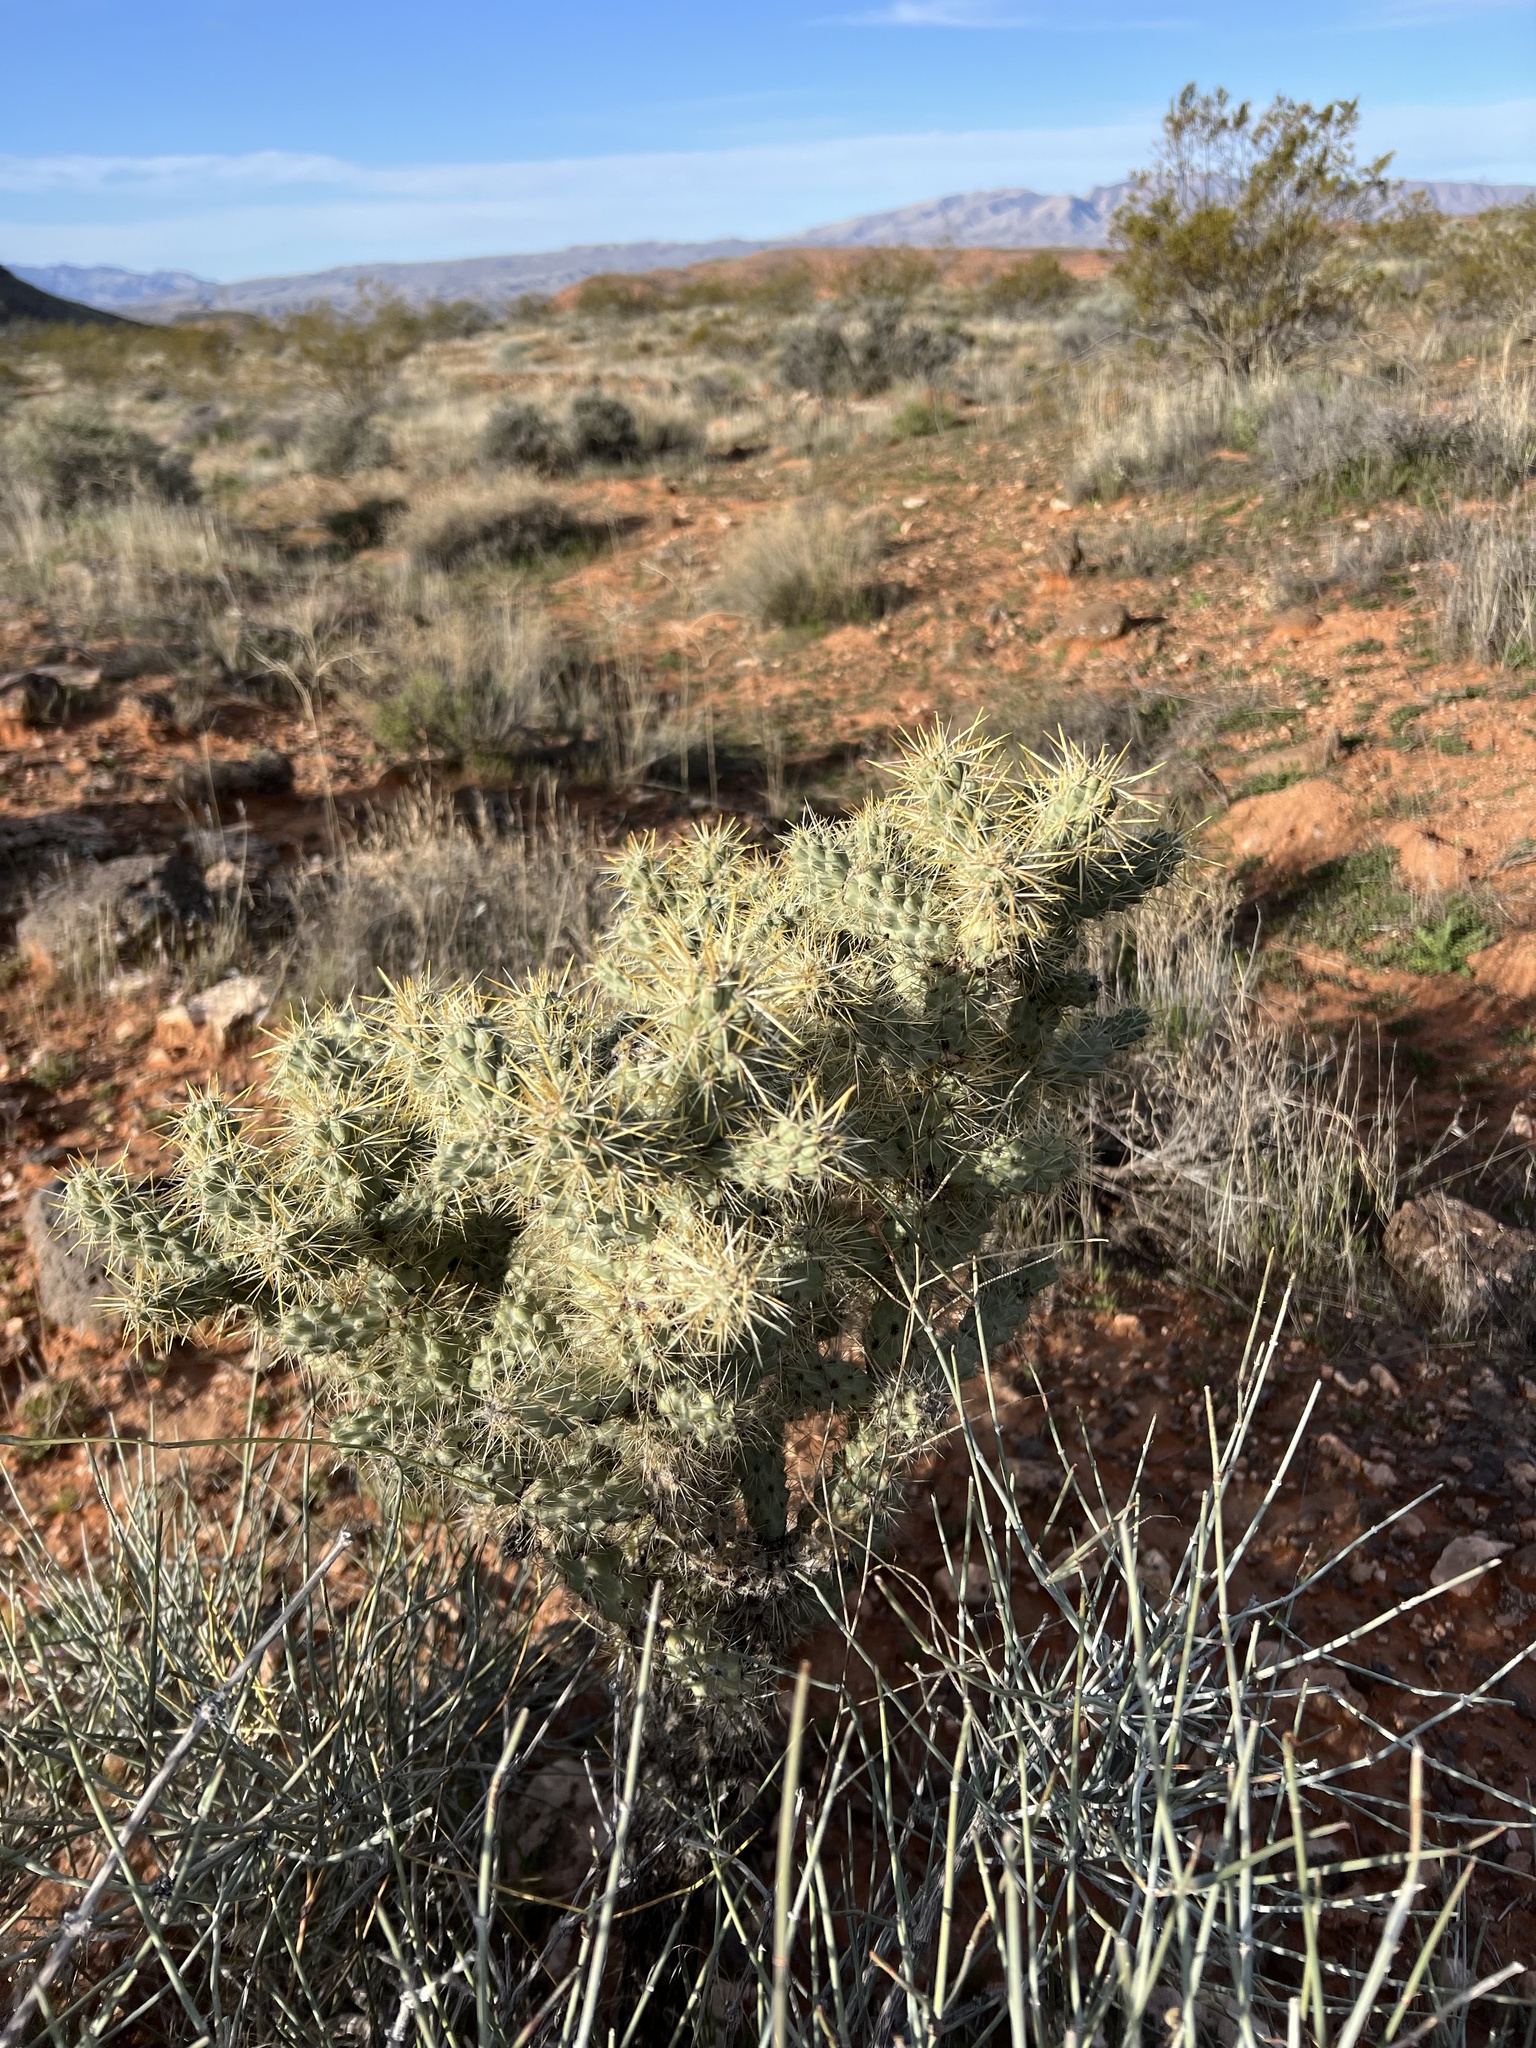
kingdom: Plantae
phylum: Tracheophyta
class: Magnoliopsida
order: Caryophyllales
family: Cactaceae
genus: Cylindropuntia
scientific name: Cylindropuntia echinocarpa
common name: Ground cholla
